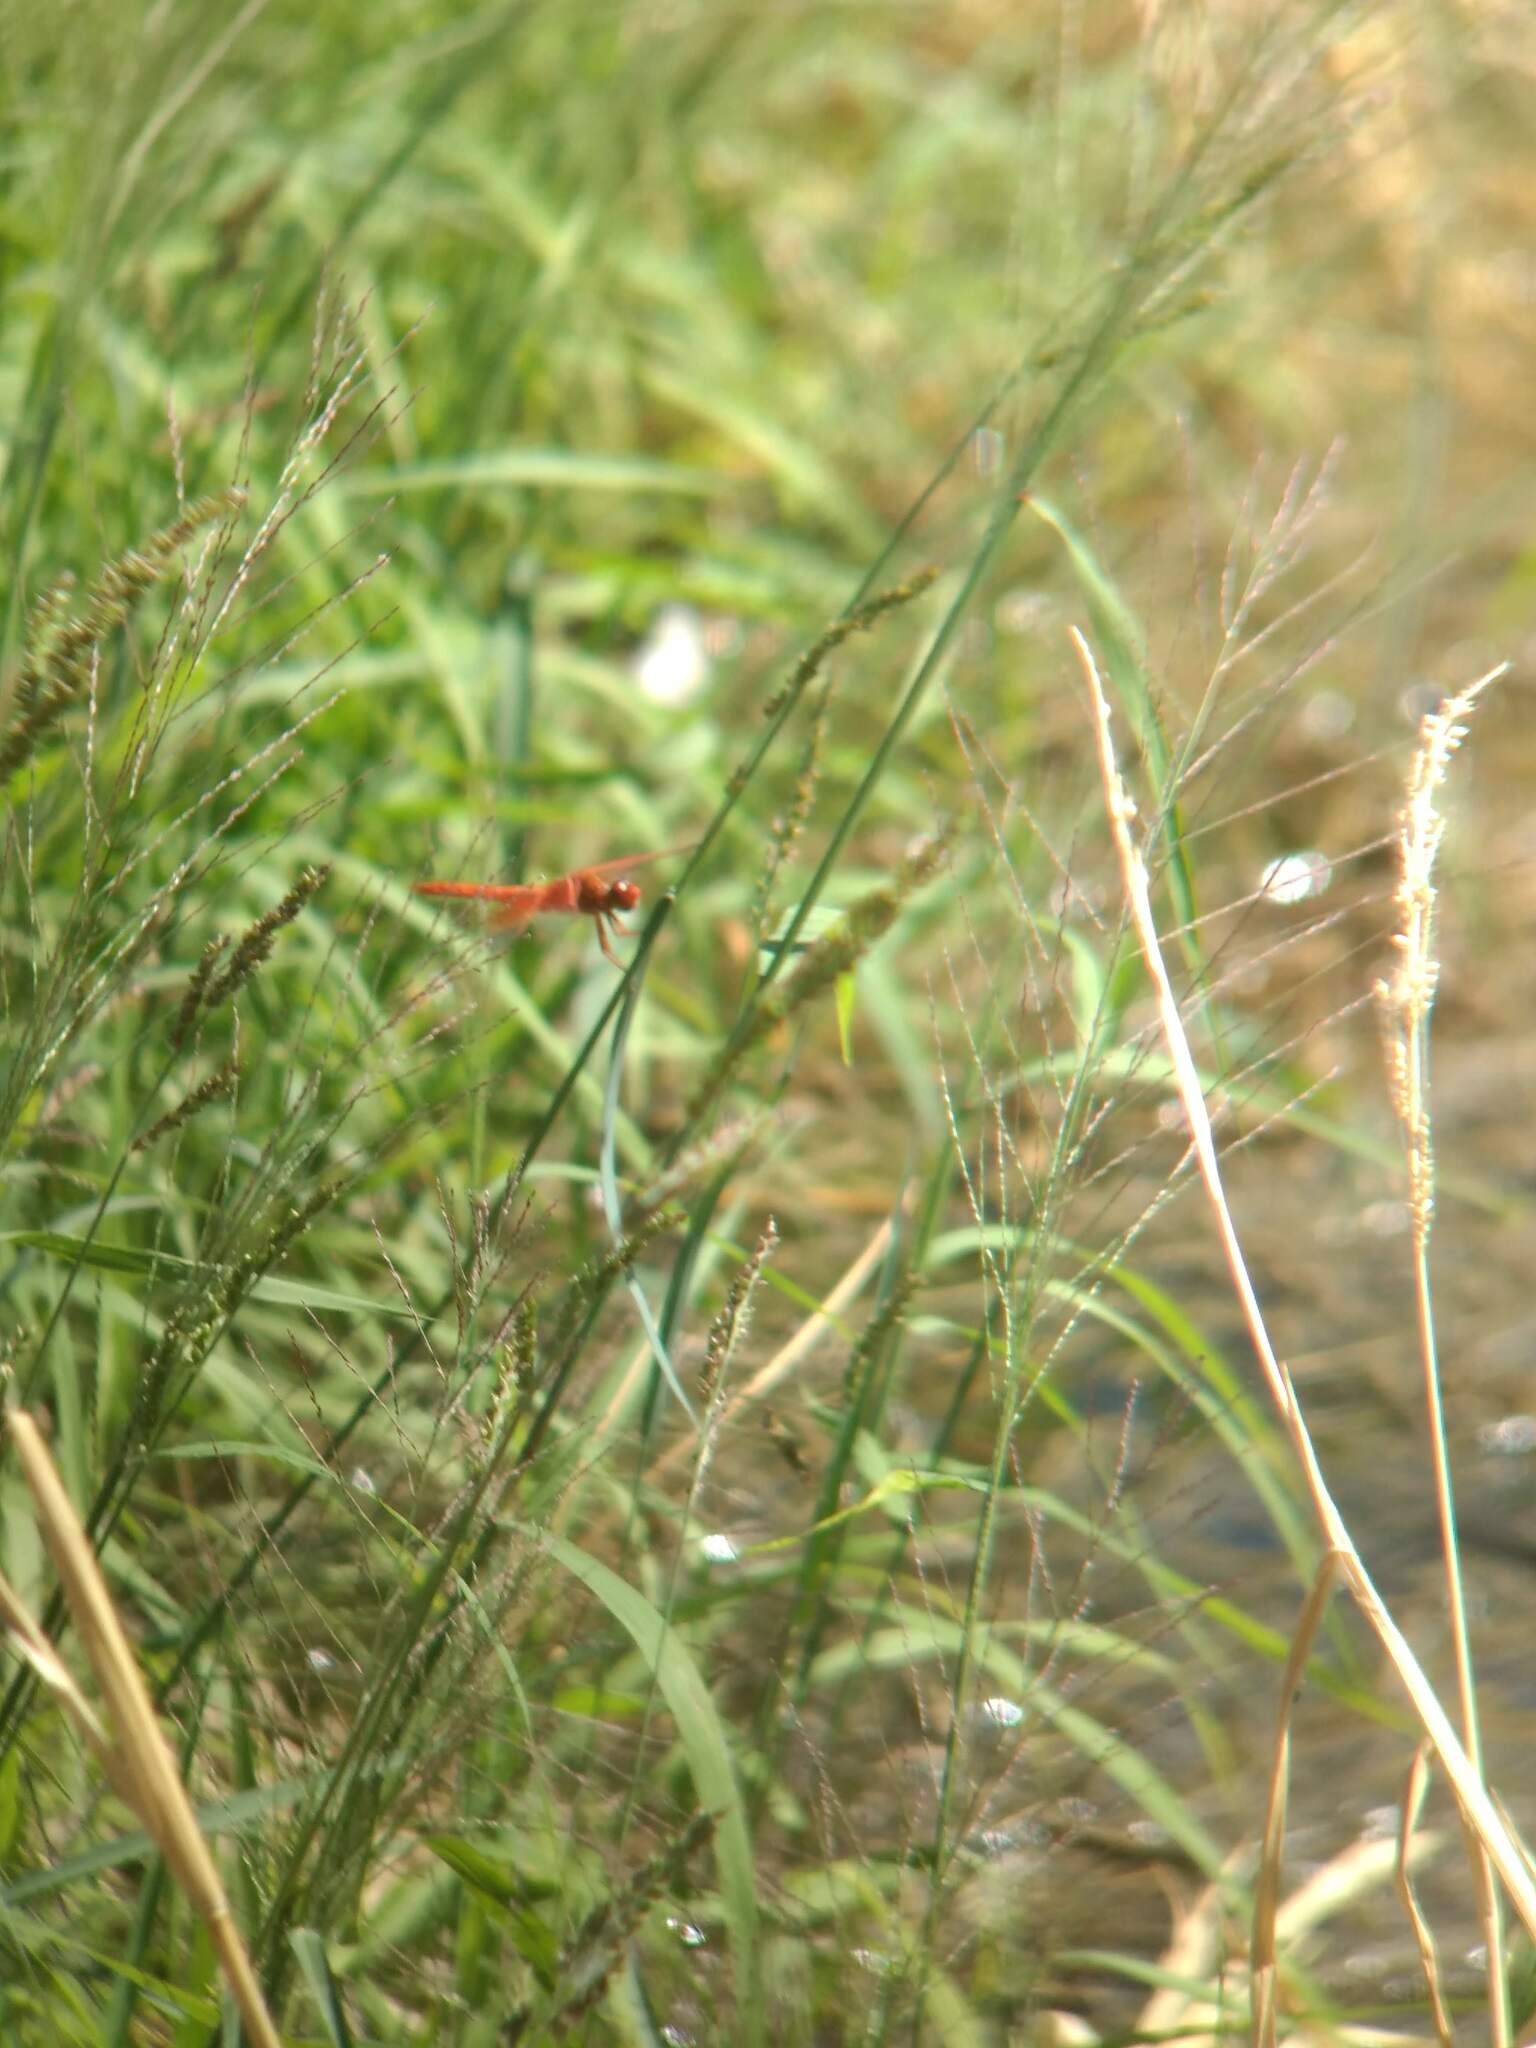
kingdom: Animalia
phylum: Arthropoda
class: Insecta
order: Odonata
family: Libellulidae
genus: Libellula
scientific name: Libellula saturata
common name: Flame skimmer
